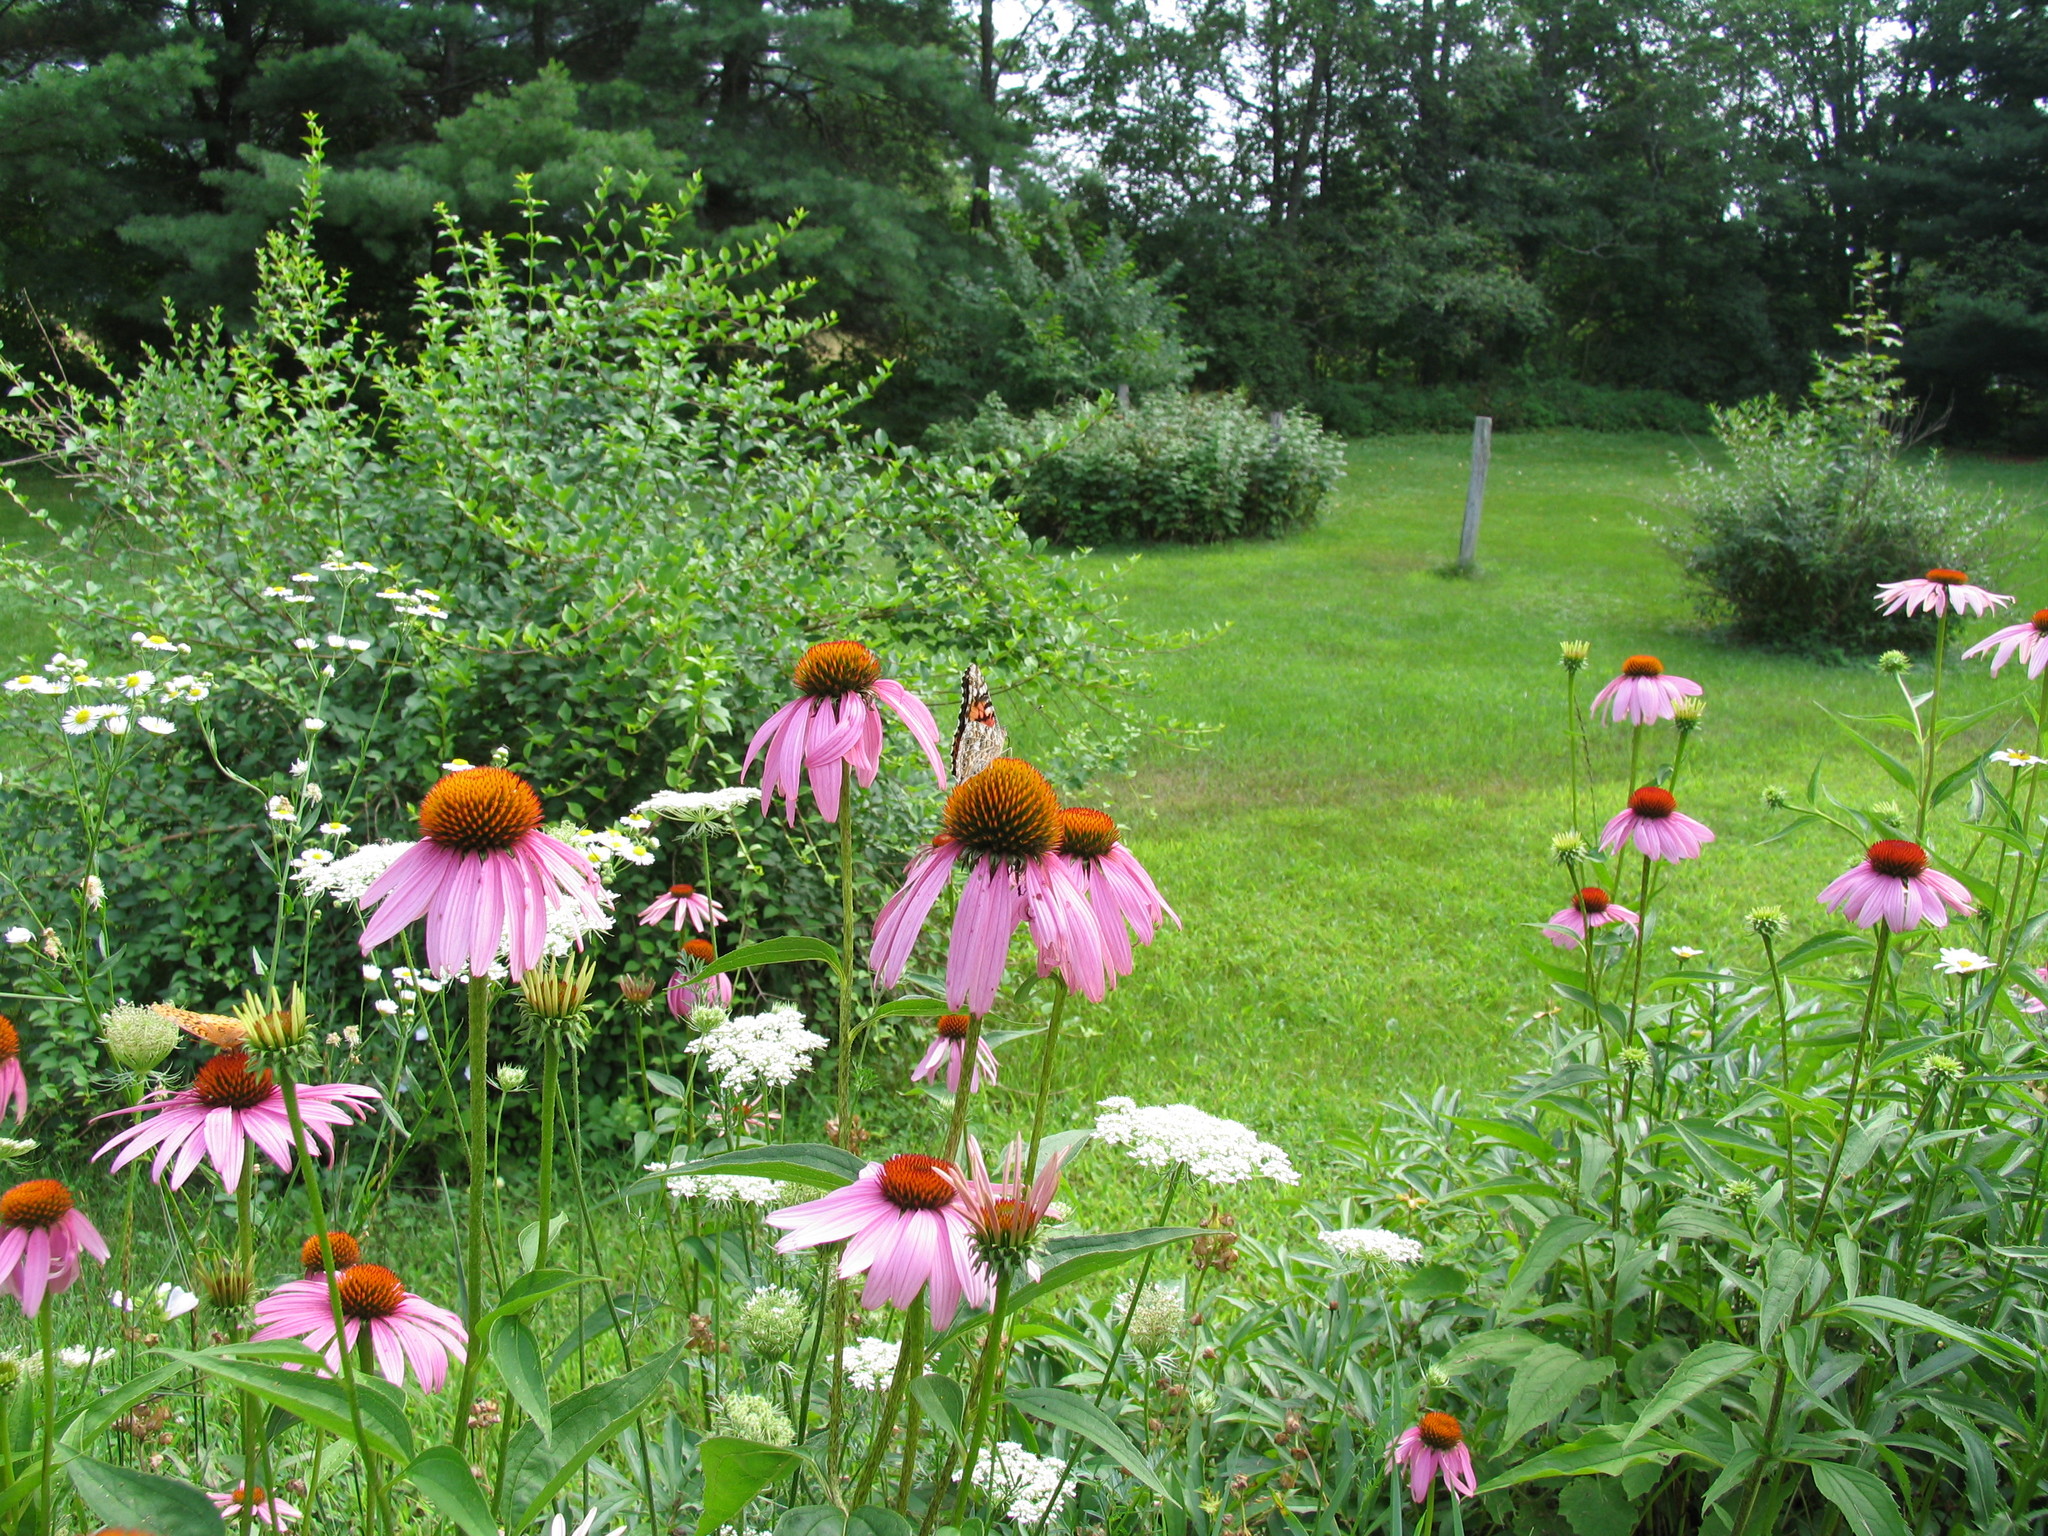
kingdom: Animalia
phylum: Arthropoda
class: Insecta
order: Lepidoptera
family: Nymphalidae
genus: Vanessa
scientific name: Vanessa cardui
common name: Painted lady
